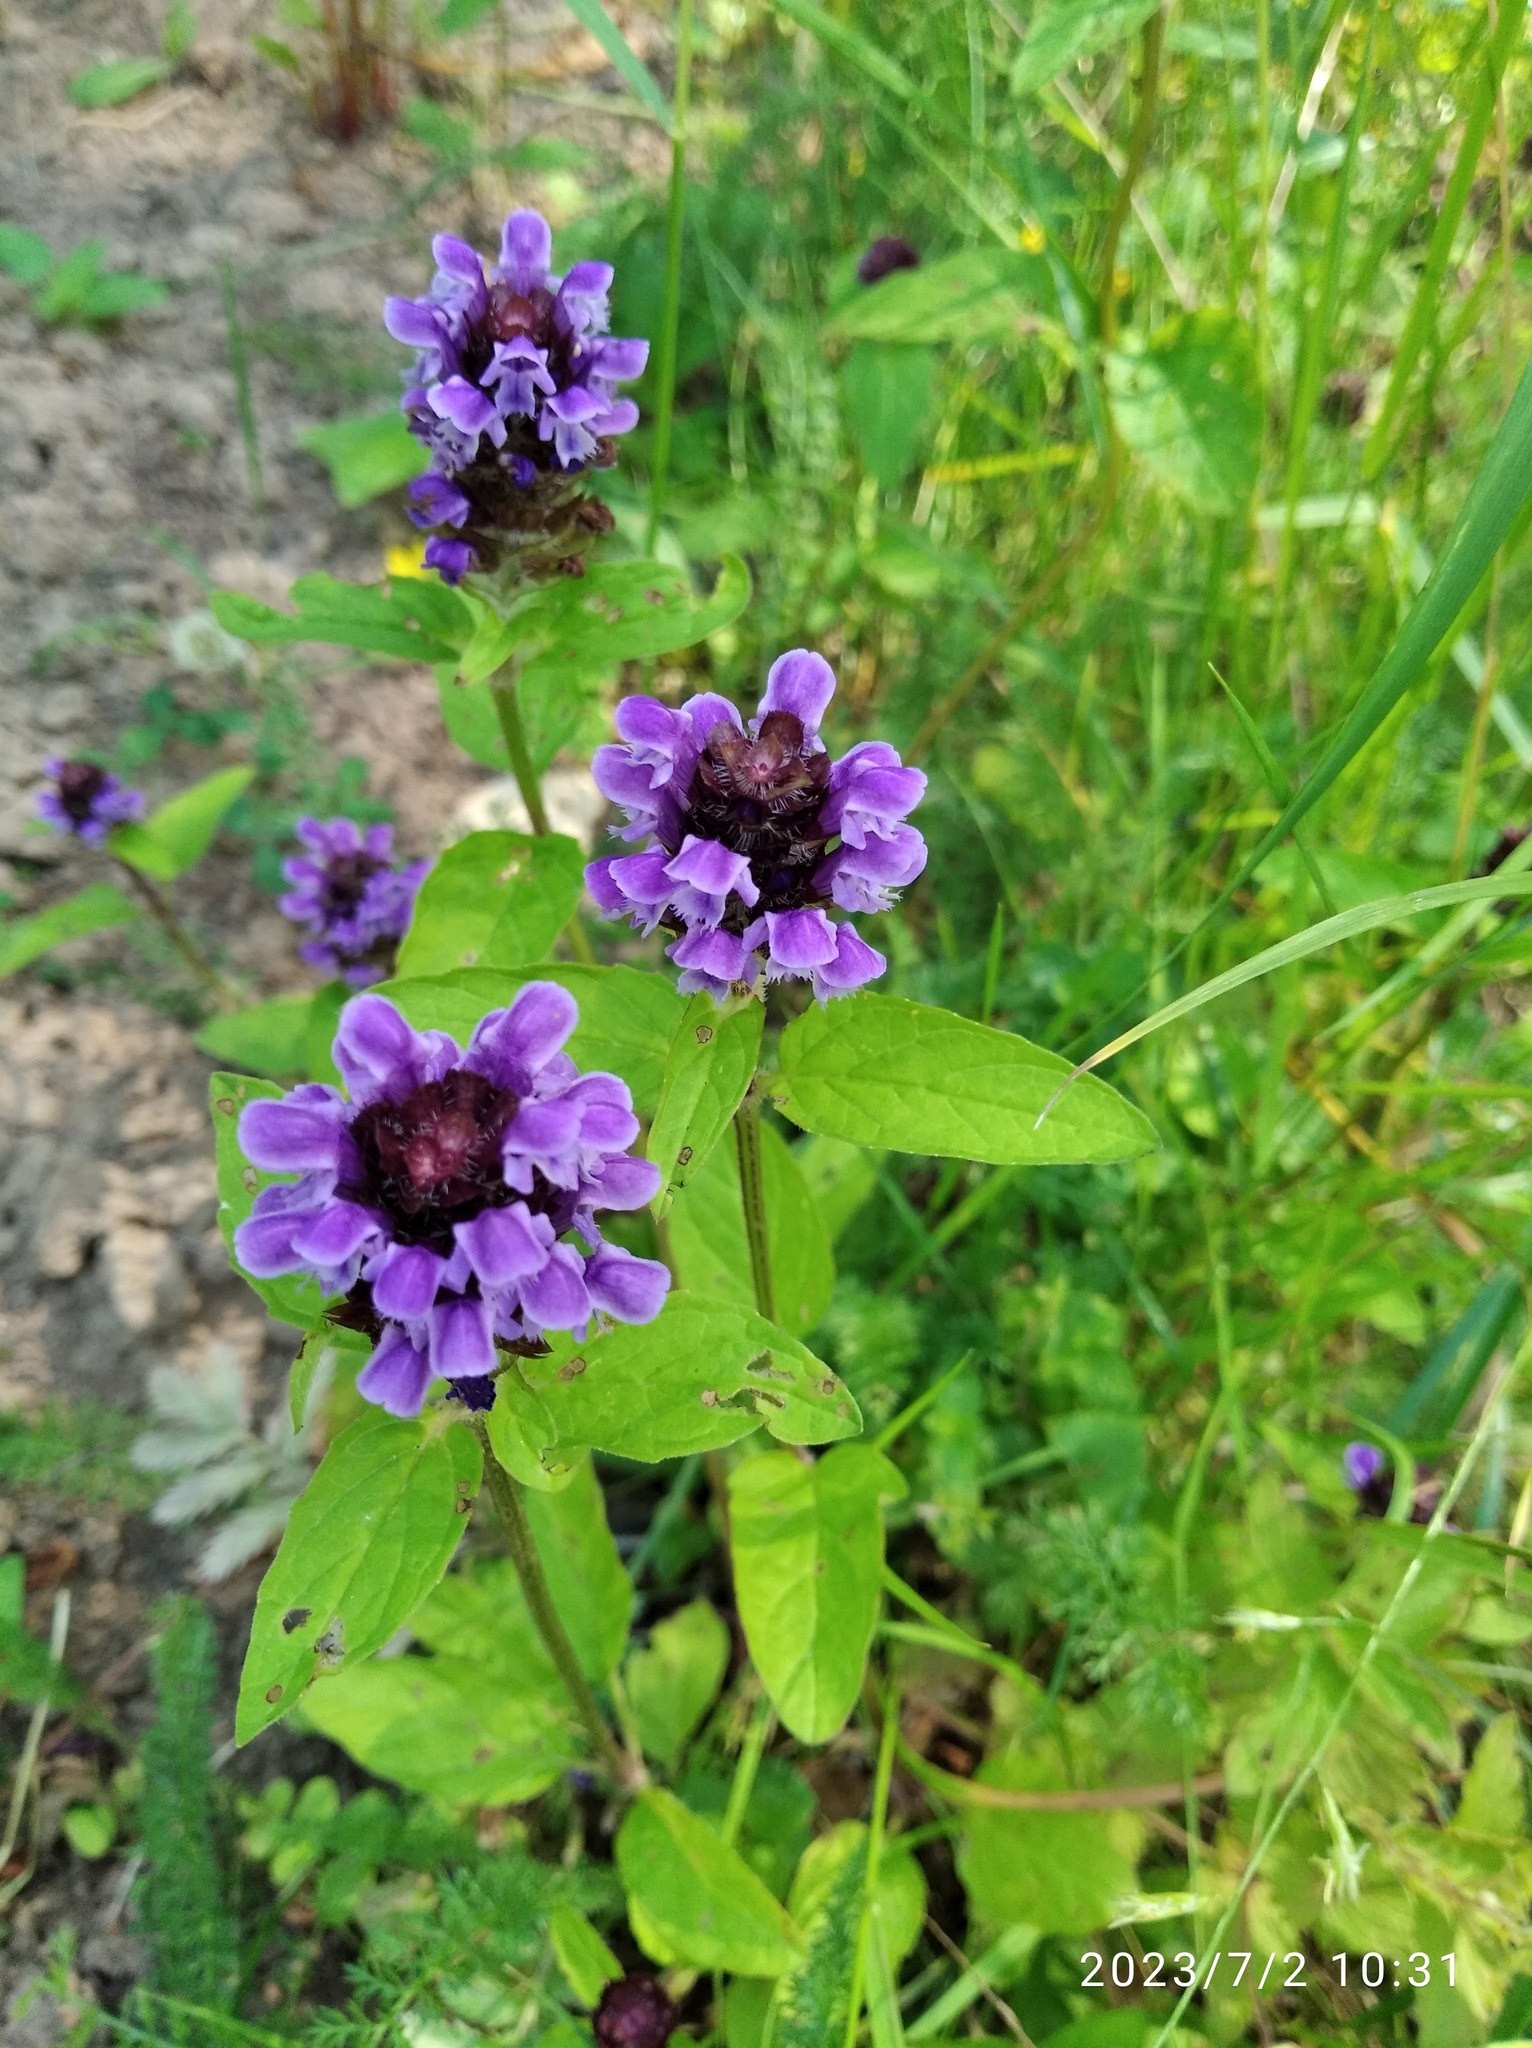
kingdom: Plantae
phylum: Tracheophyta
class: Magnoliopsida
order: Lamiales
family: Lamiaceae
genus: Prunella
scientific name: Prunella vulgaris
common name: Heal-all
